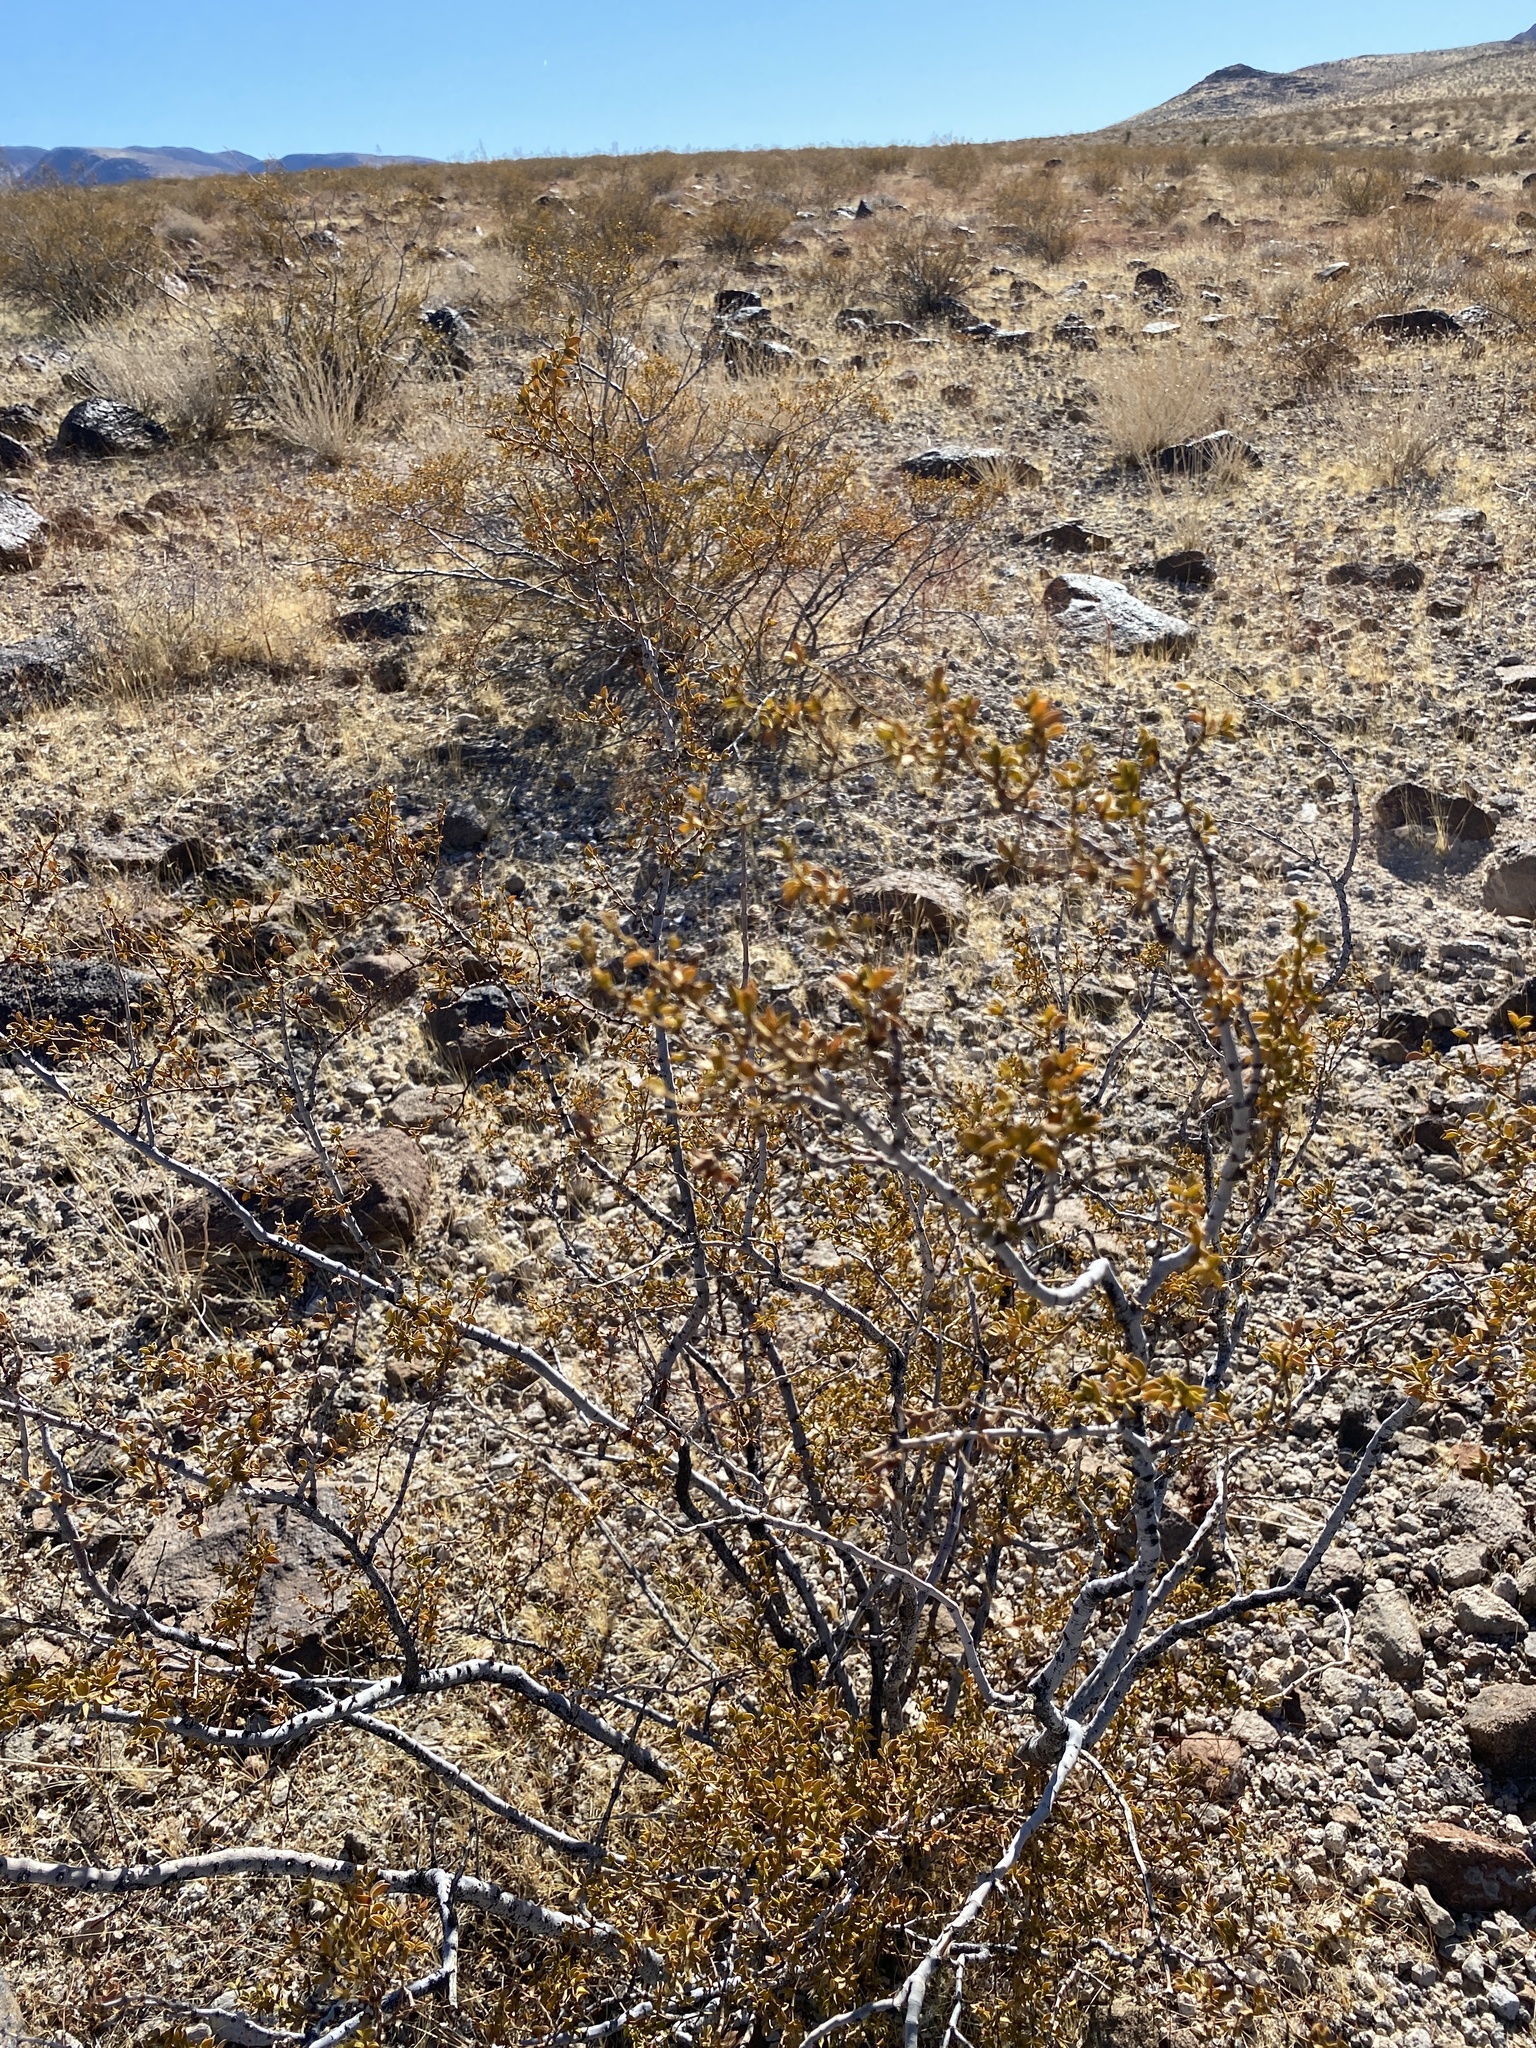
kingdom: Plantae
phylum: Tracheophyta
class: Magnoliopsida
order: Zygophyllales
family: Zygophyllaceae
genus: Larrea
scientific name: Larrea tridentata
